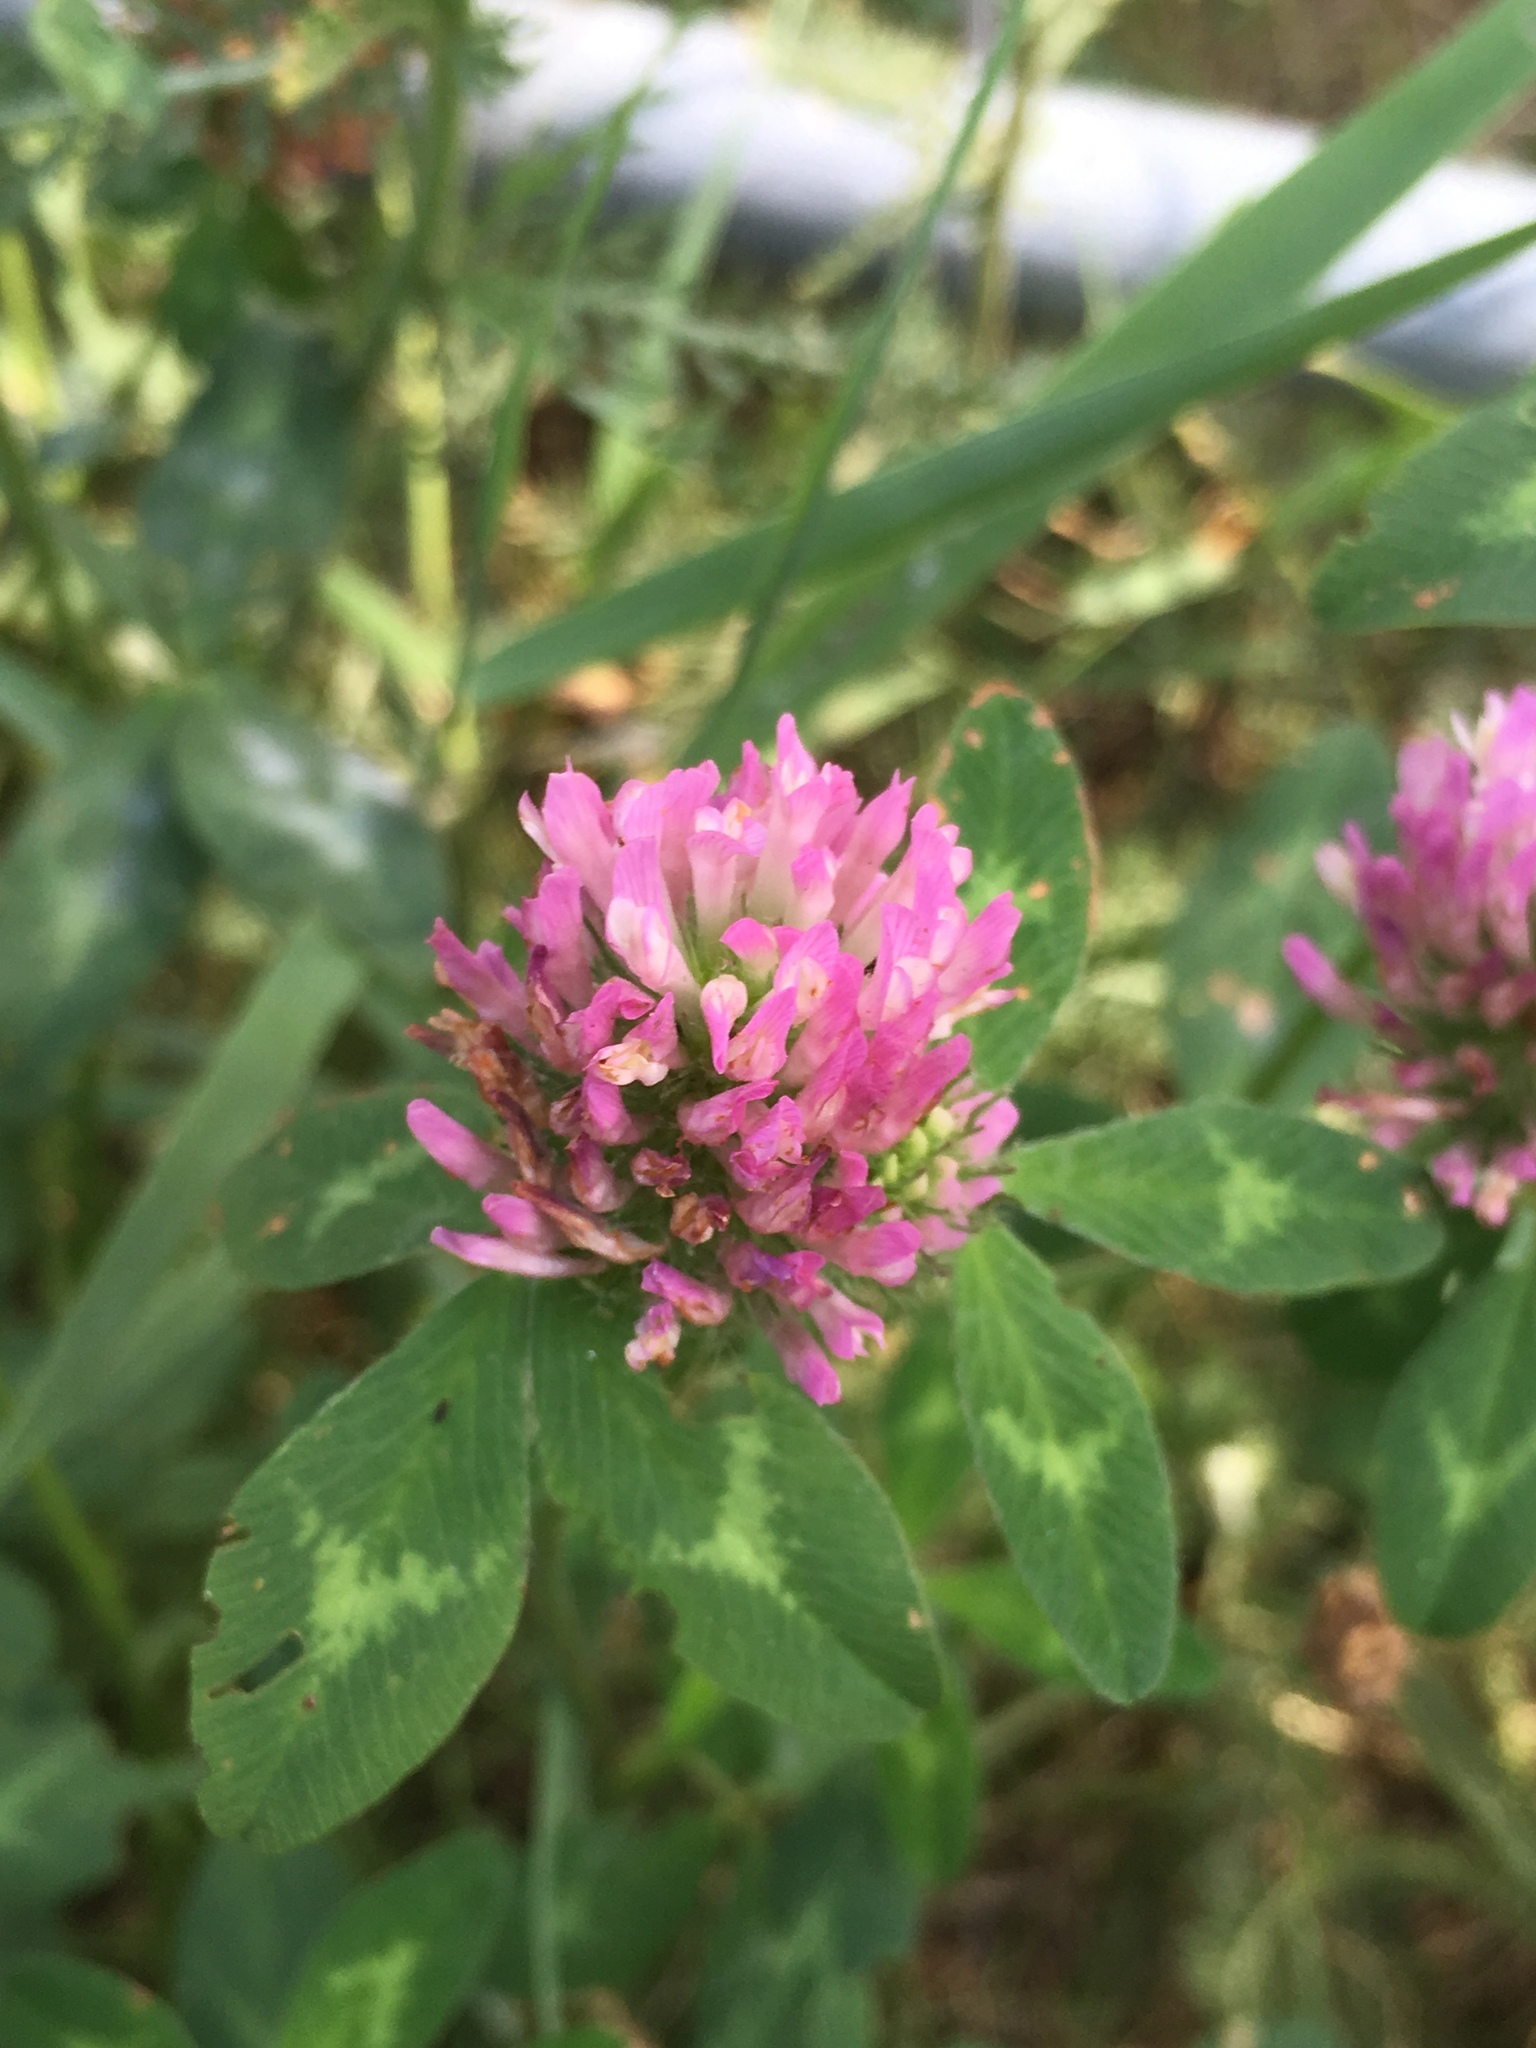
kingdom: Plantae
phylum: Tracheophyta
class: Magnoliopsida
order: Fabales
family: Fabaceae
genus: Trifolium
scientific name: Trifolium pratense
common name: Red clover
